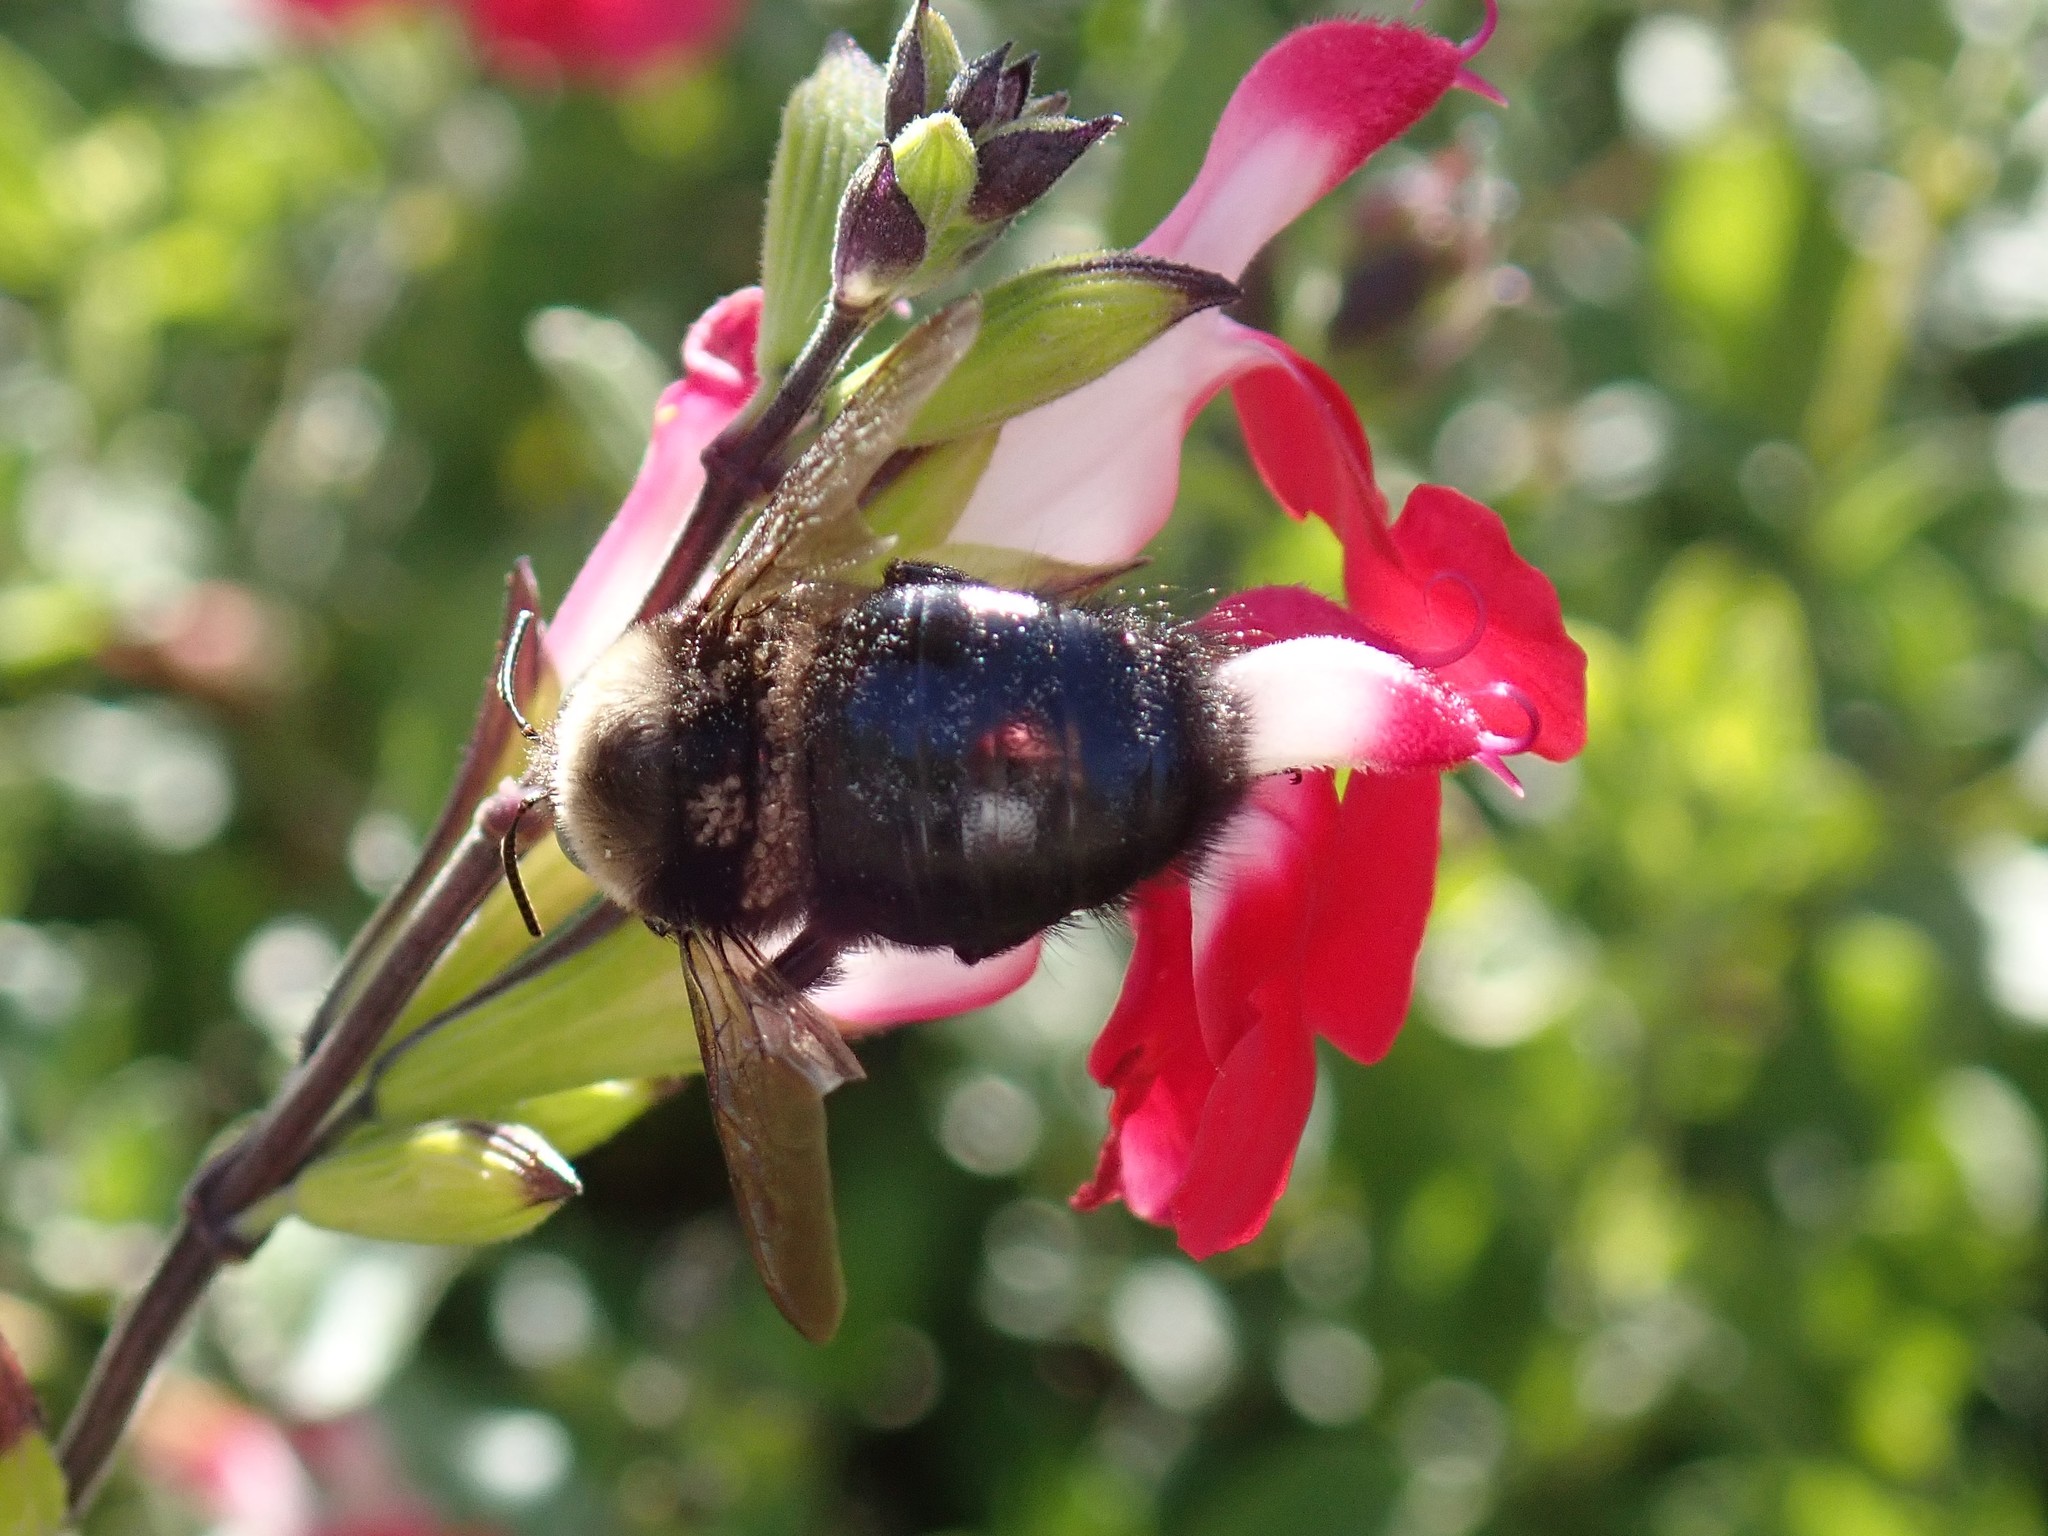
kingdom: Animalia
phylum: Arthropoda
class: Insecta
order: Hymenoptera
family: Apidae
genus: Xylocopa
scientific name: Xylocopa tabaniformis
